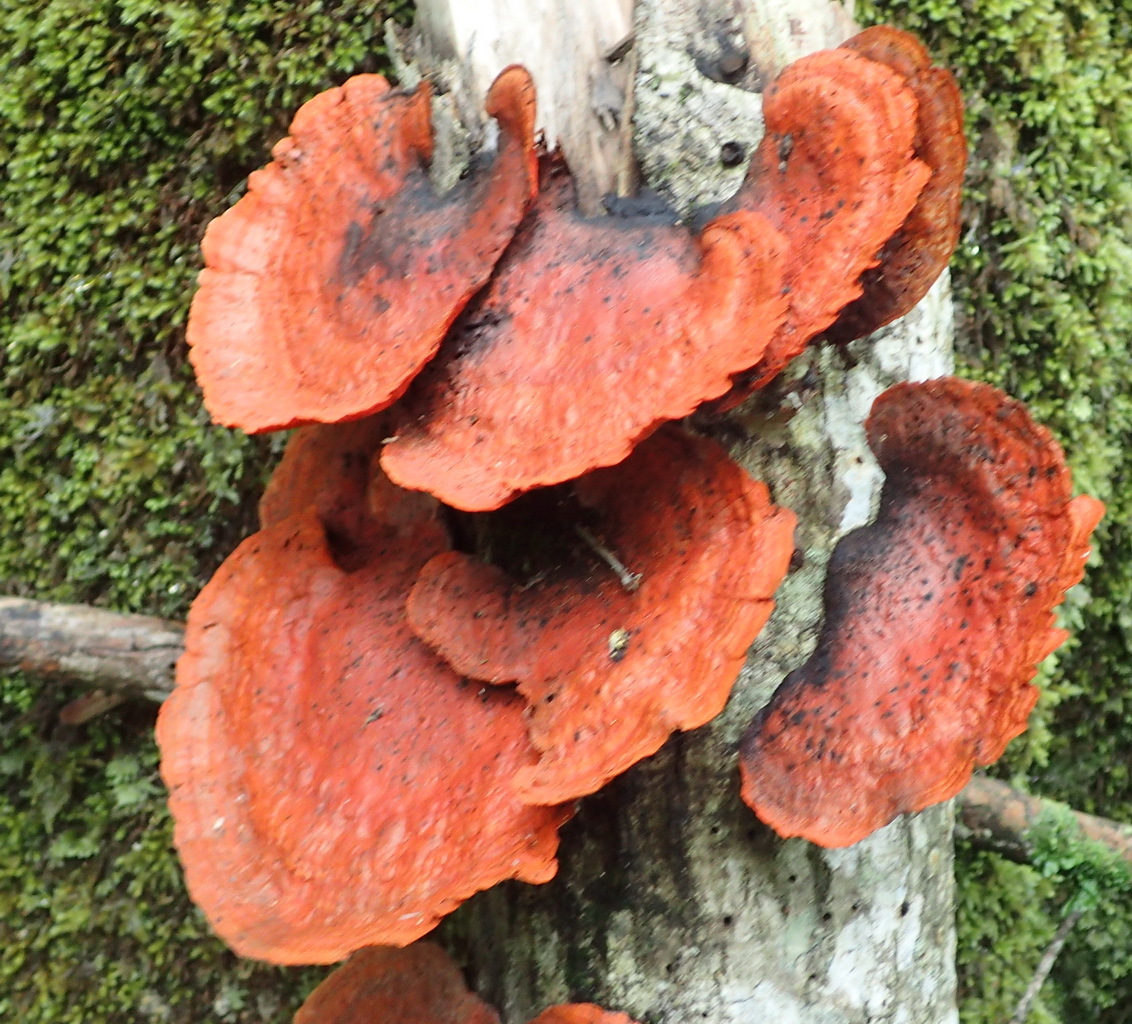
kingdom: Fungi
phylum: Basidiomycota
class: Agaricomycetes
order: Polyporales
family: Polyporaceae
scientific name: Polyporaceae
